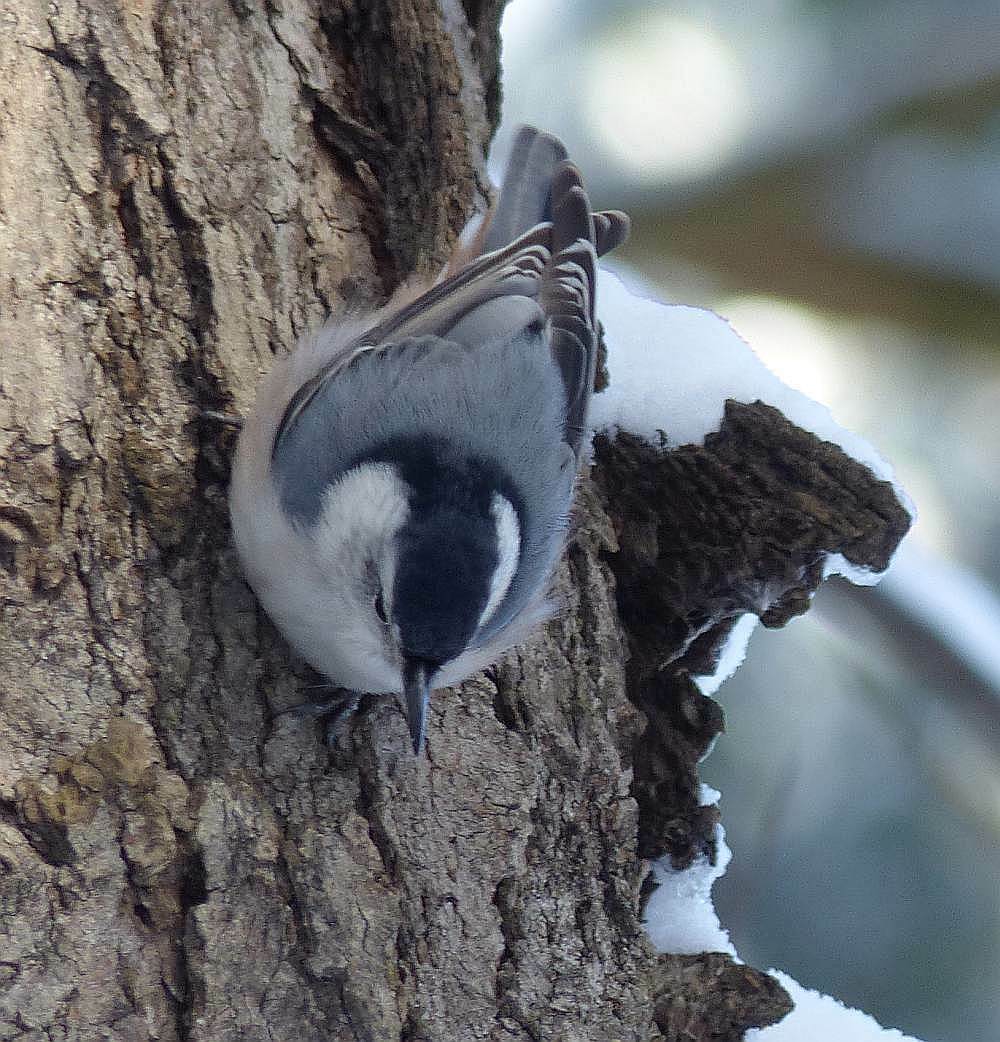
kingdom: Animalia
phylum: Chordata
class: Aves
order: Passeriformes
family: Sittidae
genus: Sitta
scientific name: Sitta carolinensis
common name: White-breasted nuthatch
